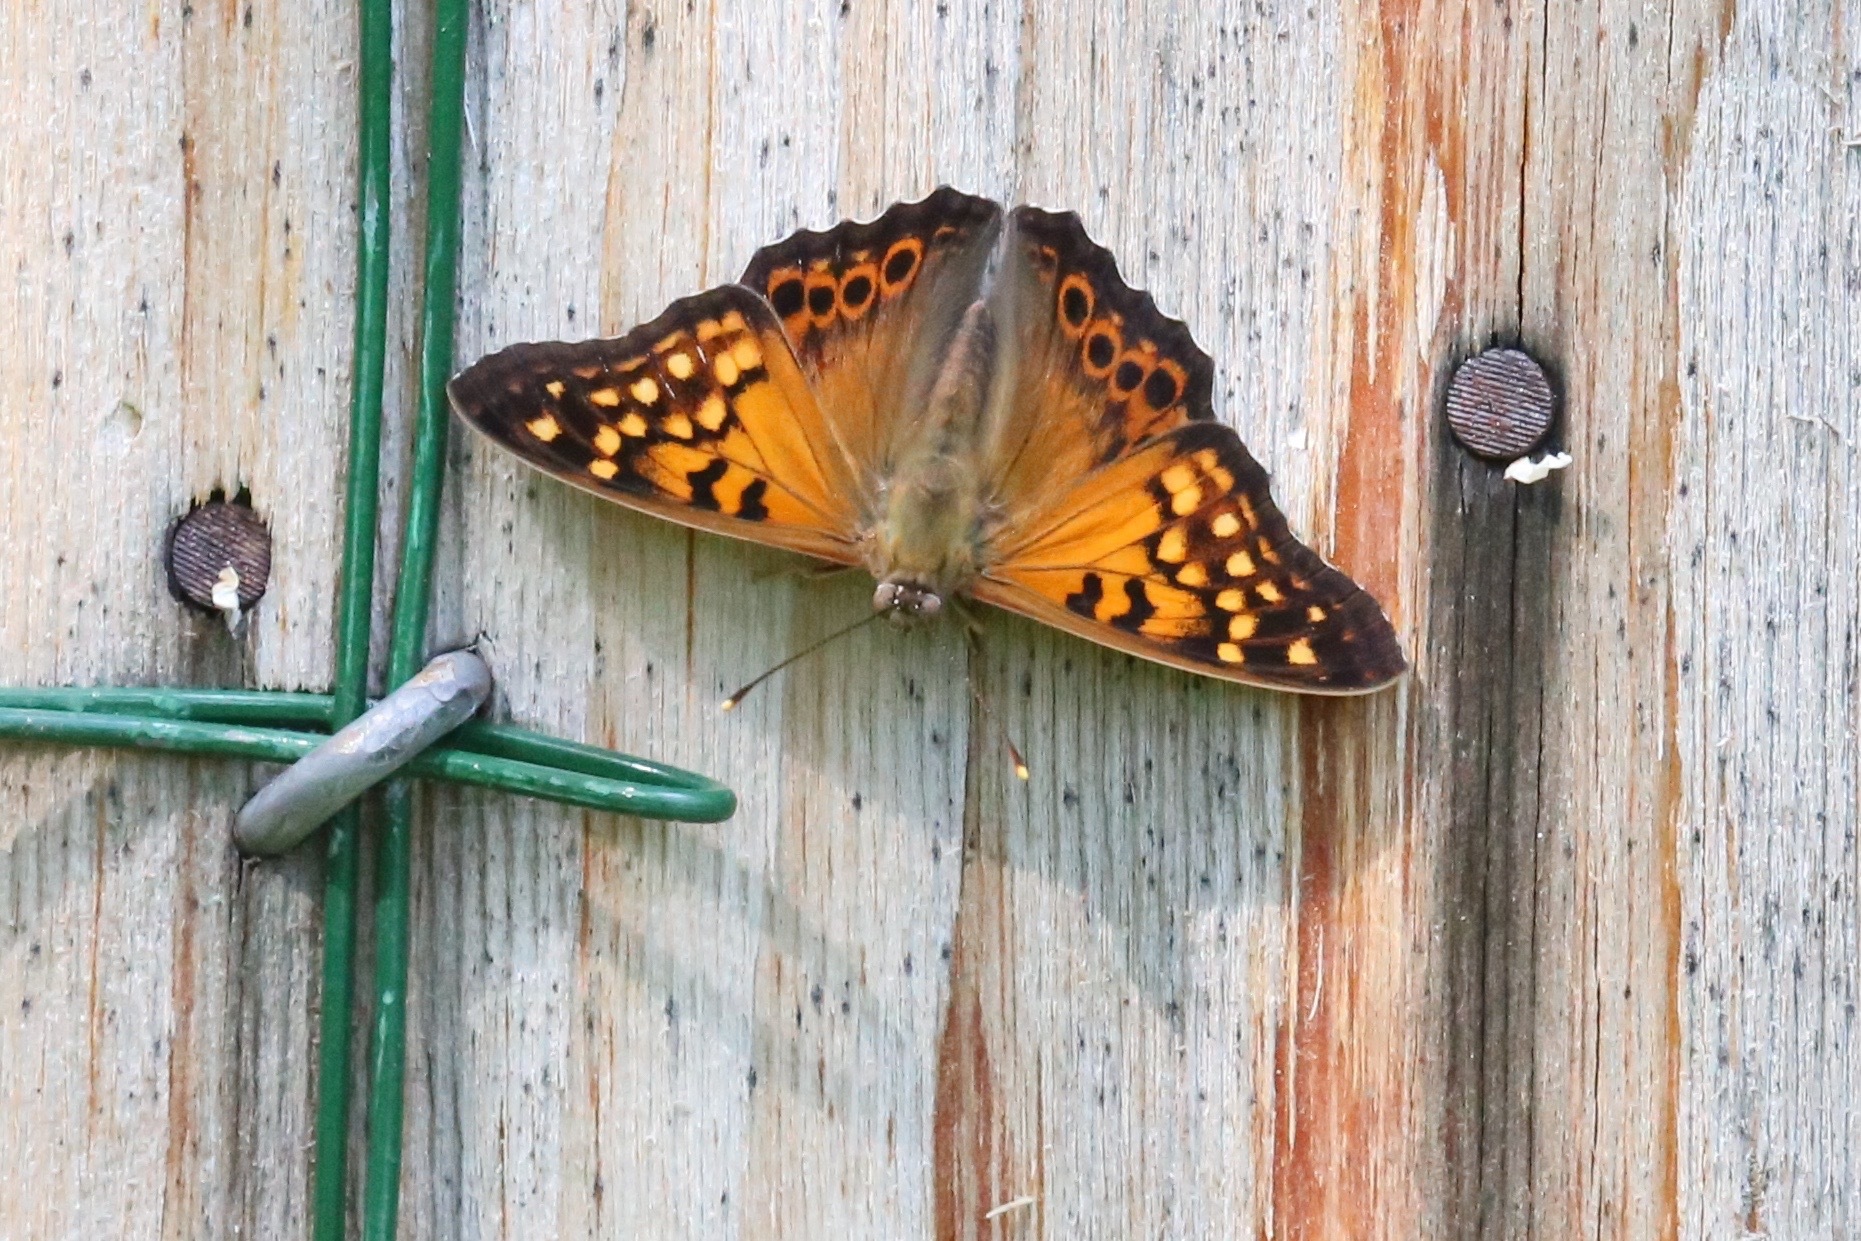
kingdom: Animalia
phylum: Arthropoda
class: Insecta
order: Lepidoptera
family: Nymphalidae
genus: Asterocampa
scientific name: Asterocampa clyton
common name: Tawny emperor
